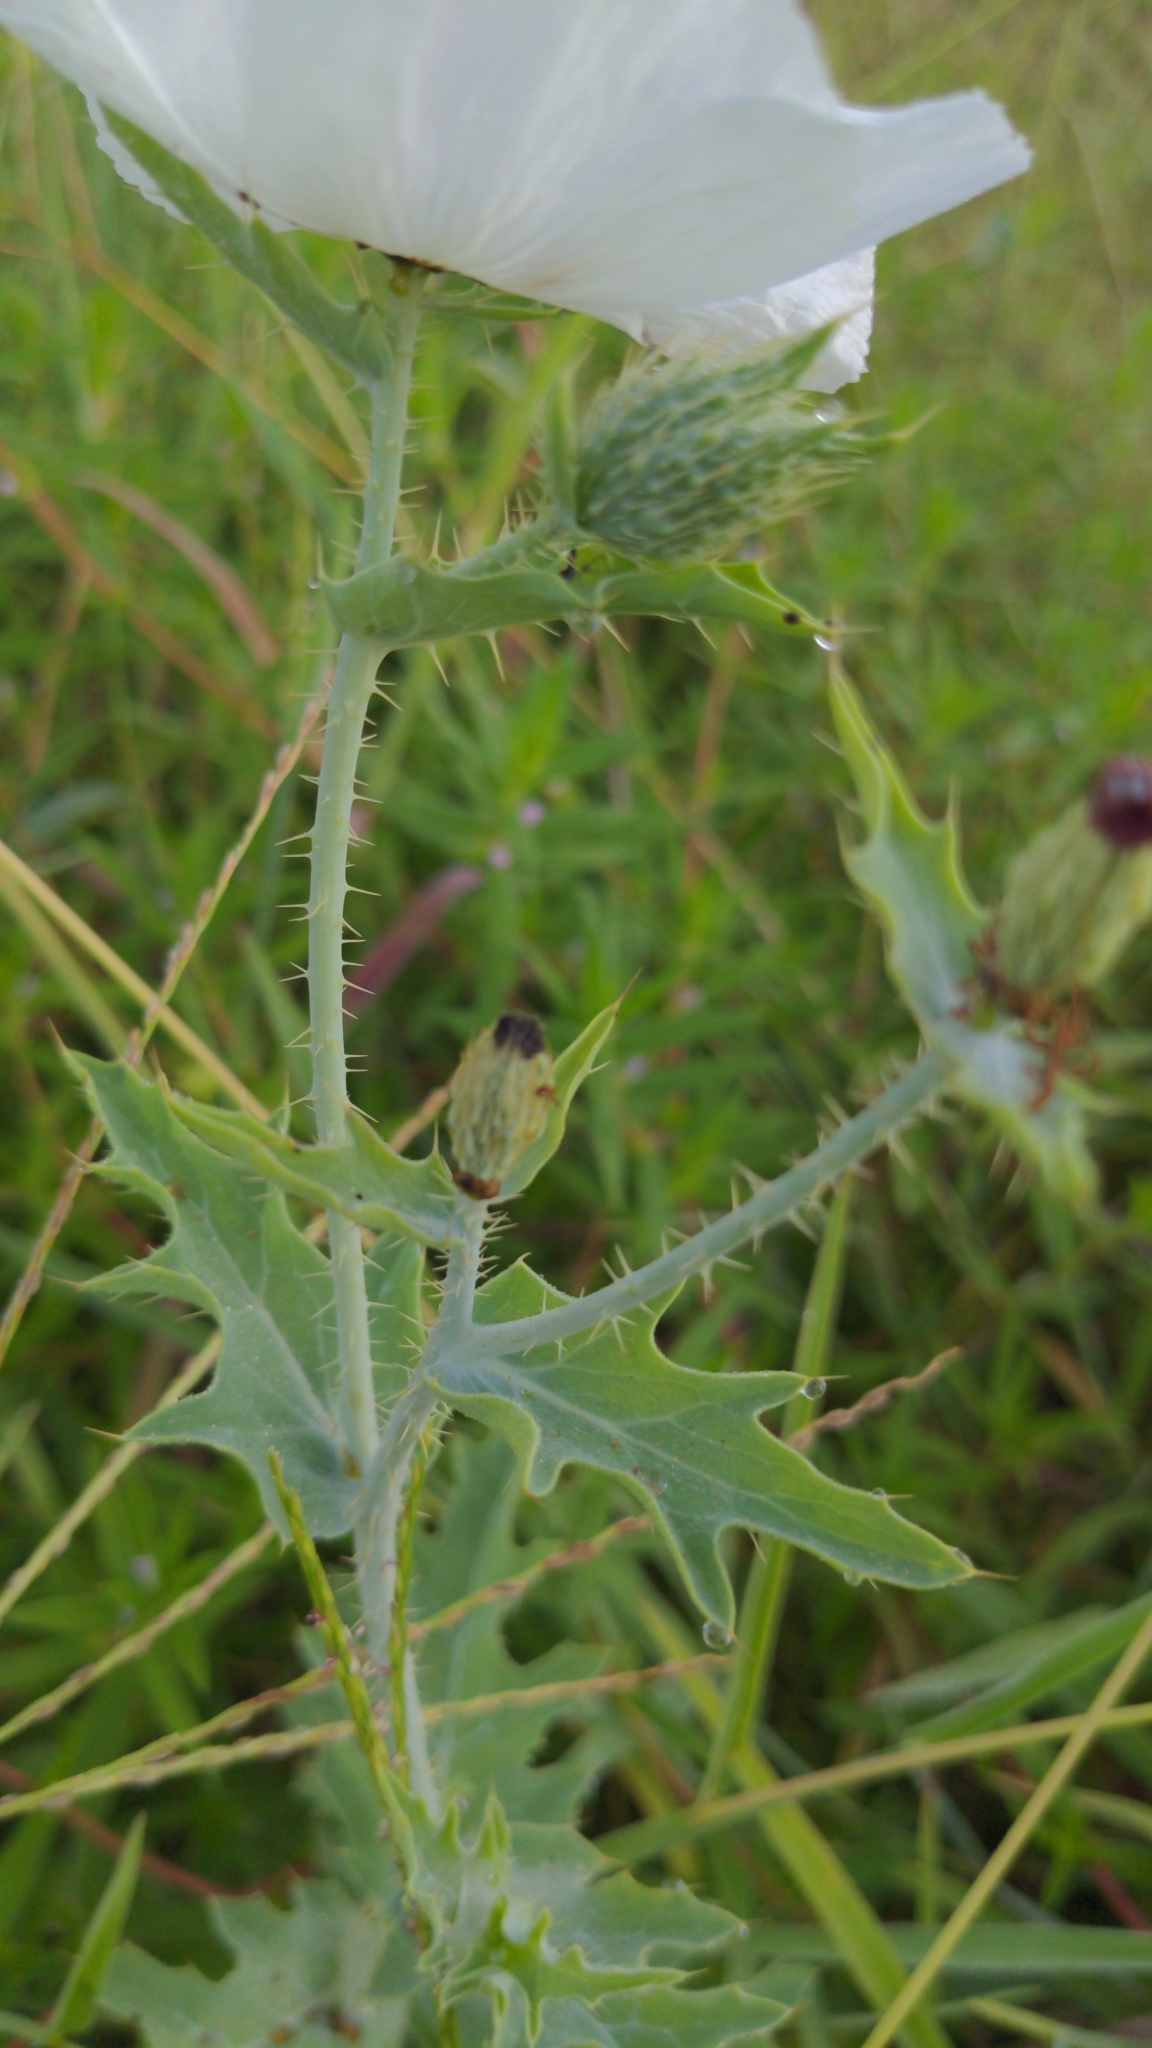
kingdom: Plantae
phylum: Tracheophyta
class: Magnoliopsida
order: Ranunculales
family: Papaveraceae
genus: Argemone
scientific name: Argemone albiflora
